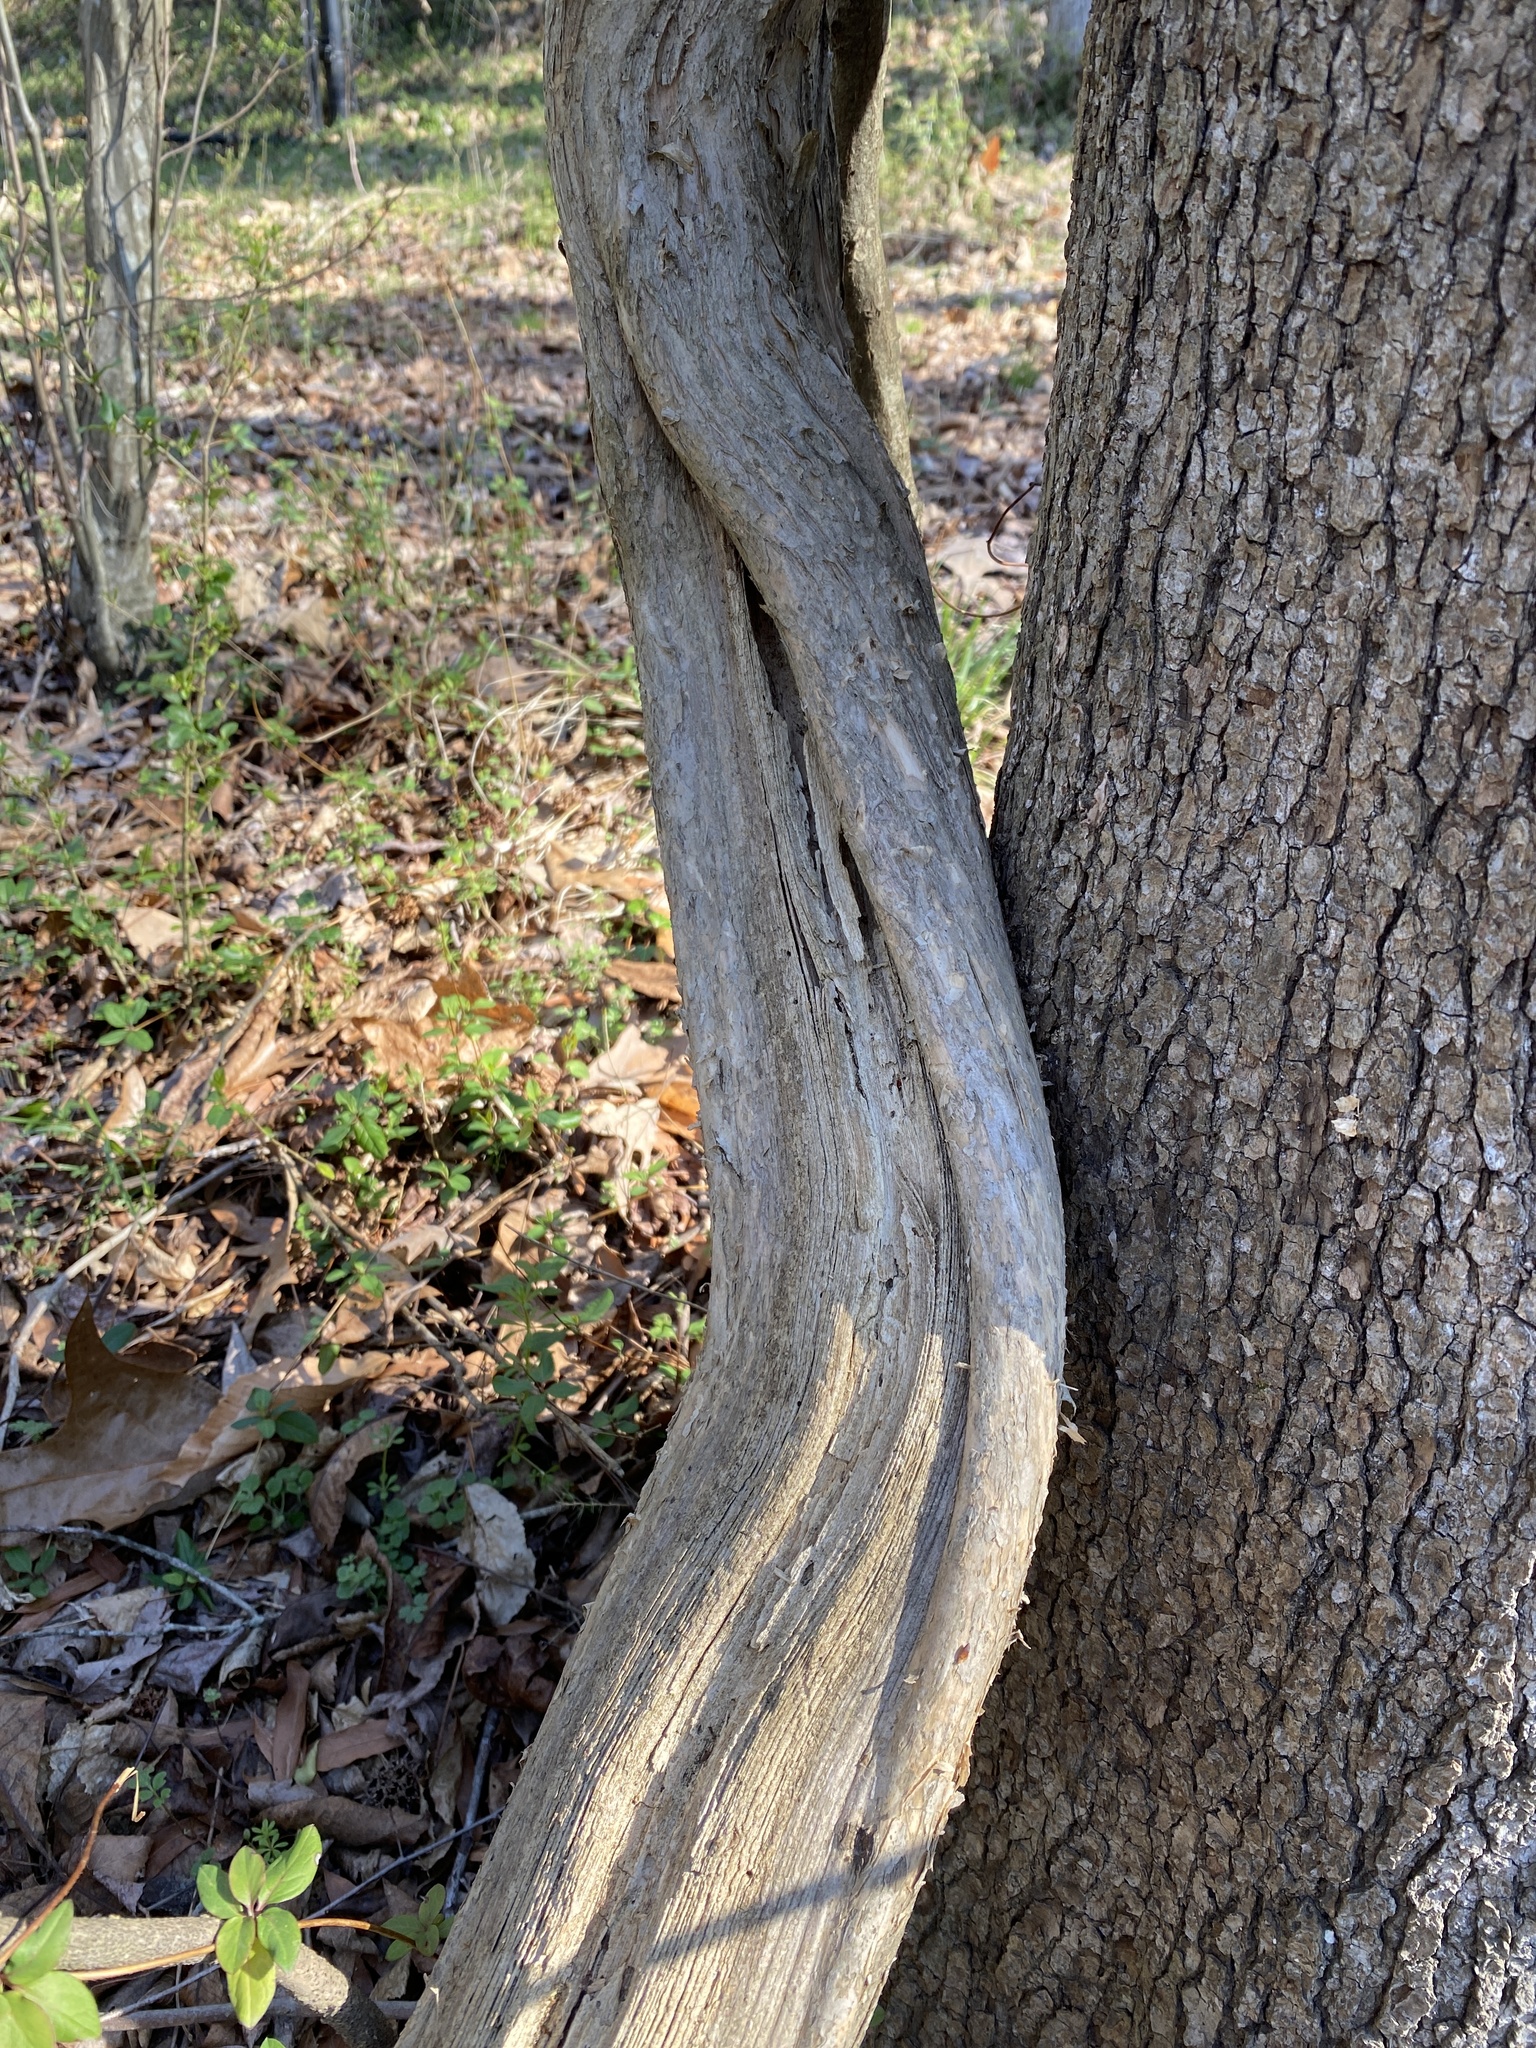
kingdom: Plantae
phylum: Tracheophyta
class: Magnoliopsida
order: Lamiales
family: Bignoniaceae
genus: Campsis
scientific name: Campsis radicans
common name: Trumpet-creeper
